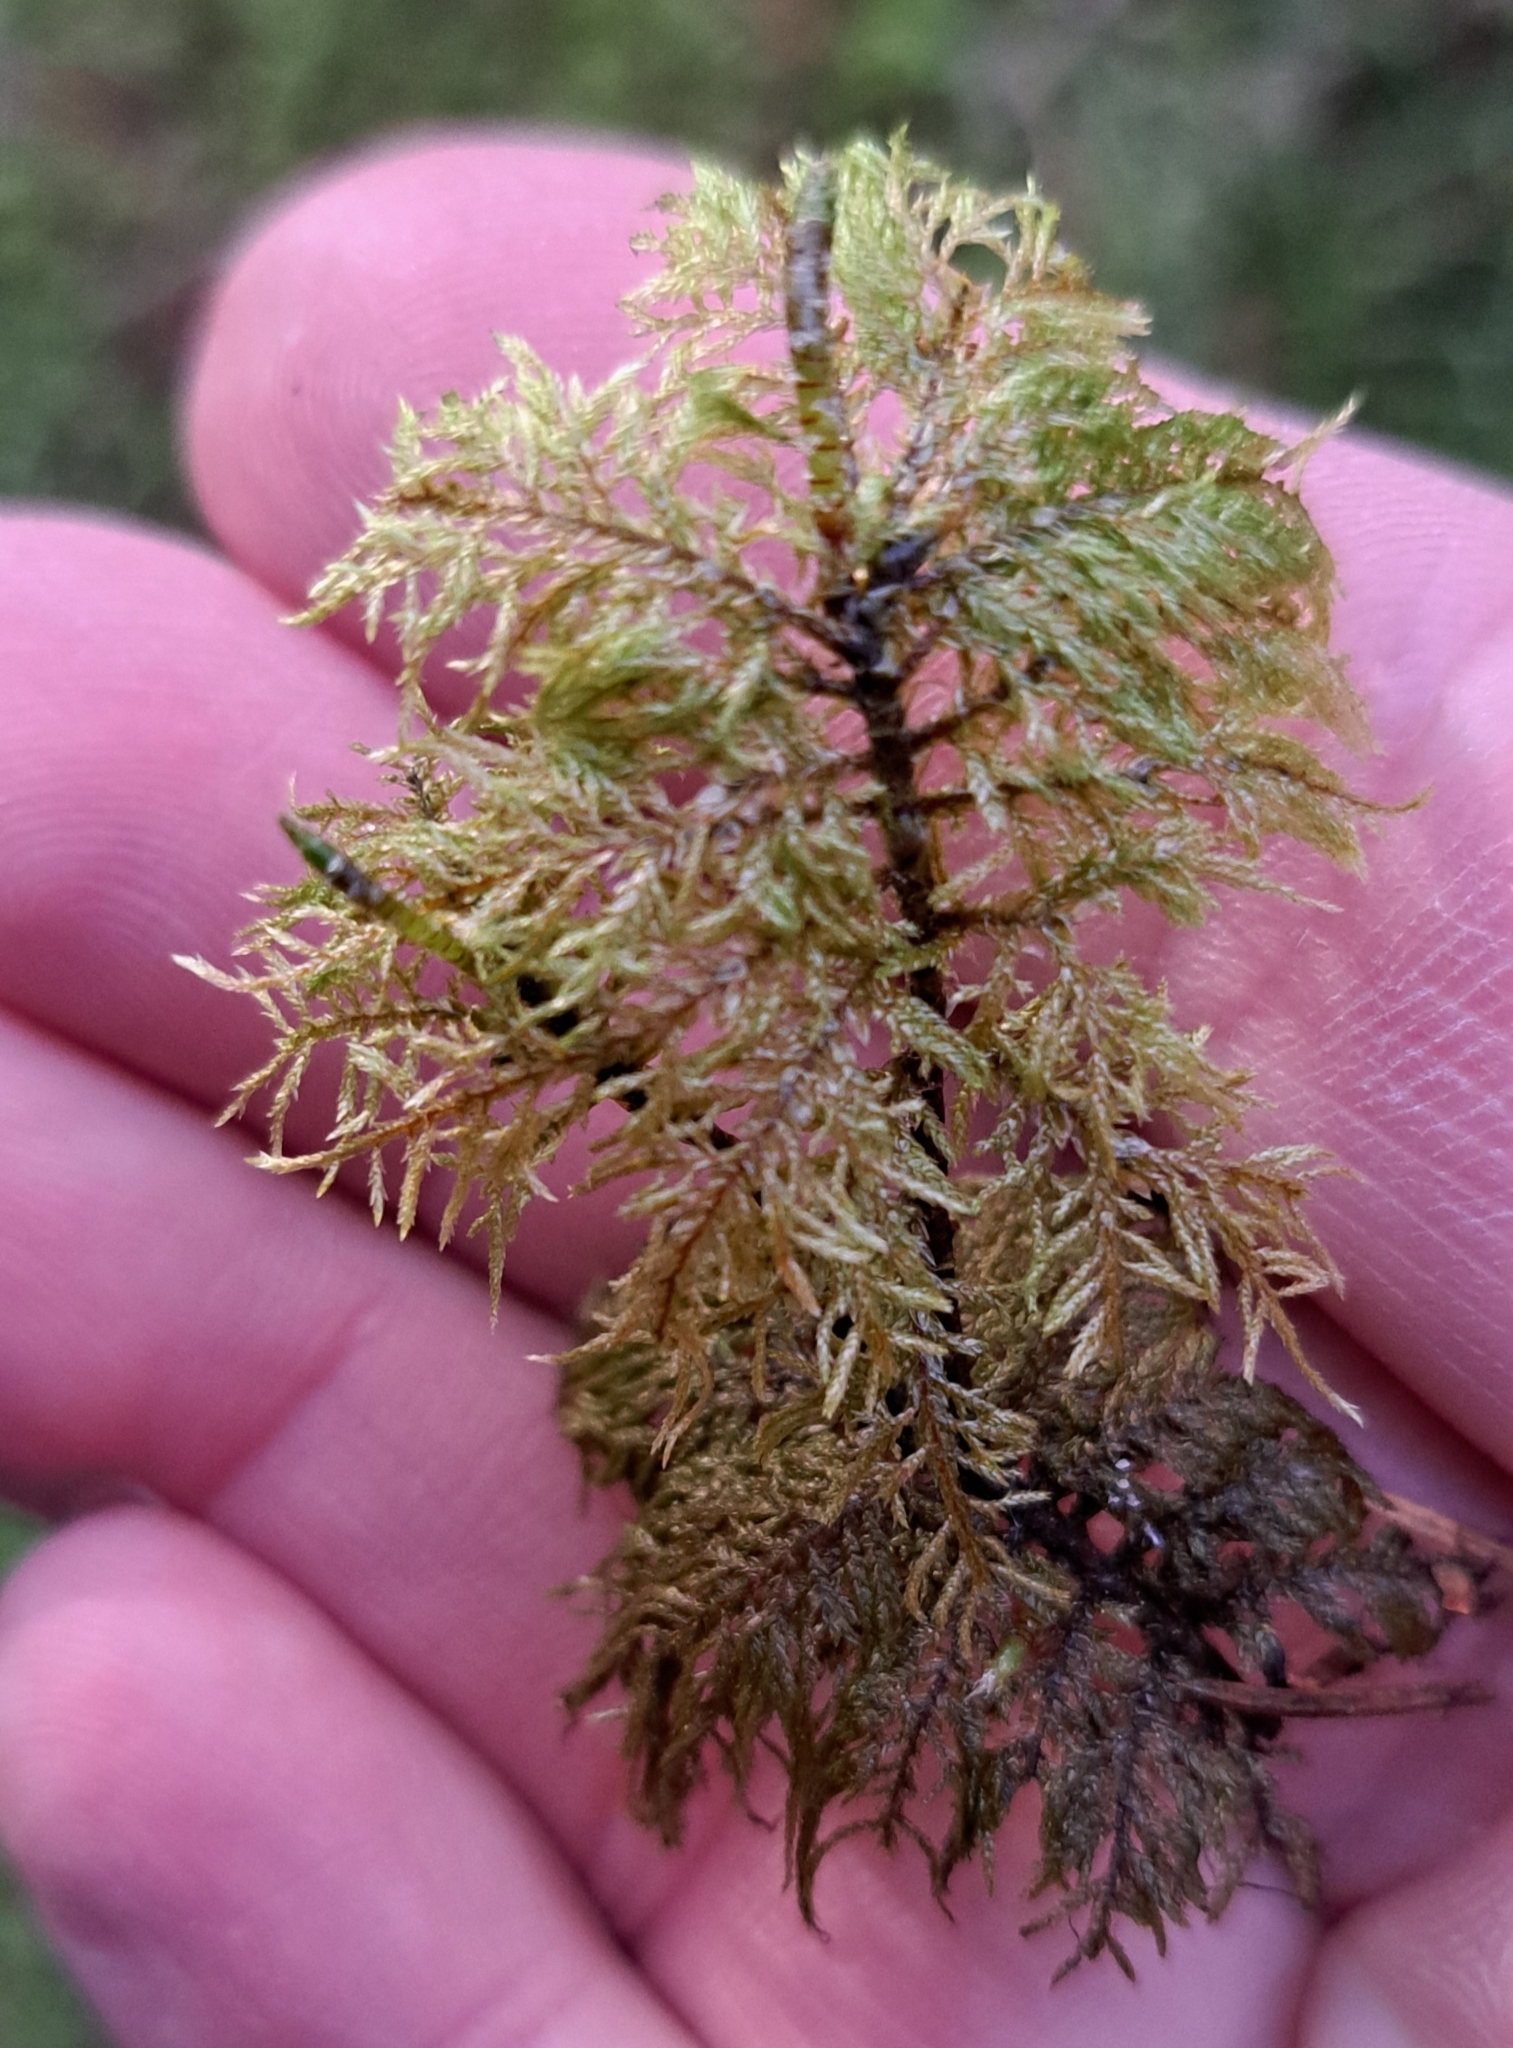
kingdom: Plantae
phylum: Bryophyta
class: Bryopsida
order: Hypnales
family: Hylocomiaceae
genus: Hylocomium
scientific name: Hylocomium splendens
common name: Stairstep moss
